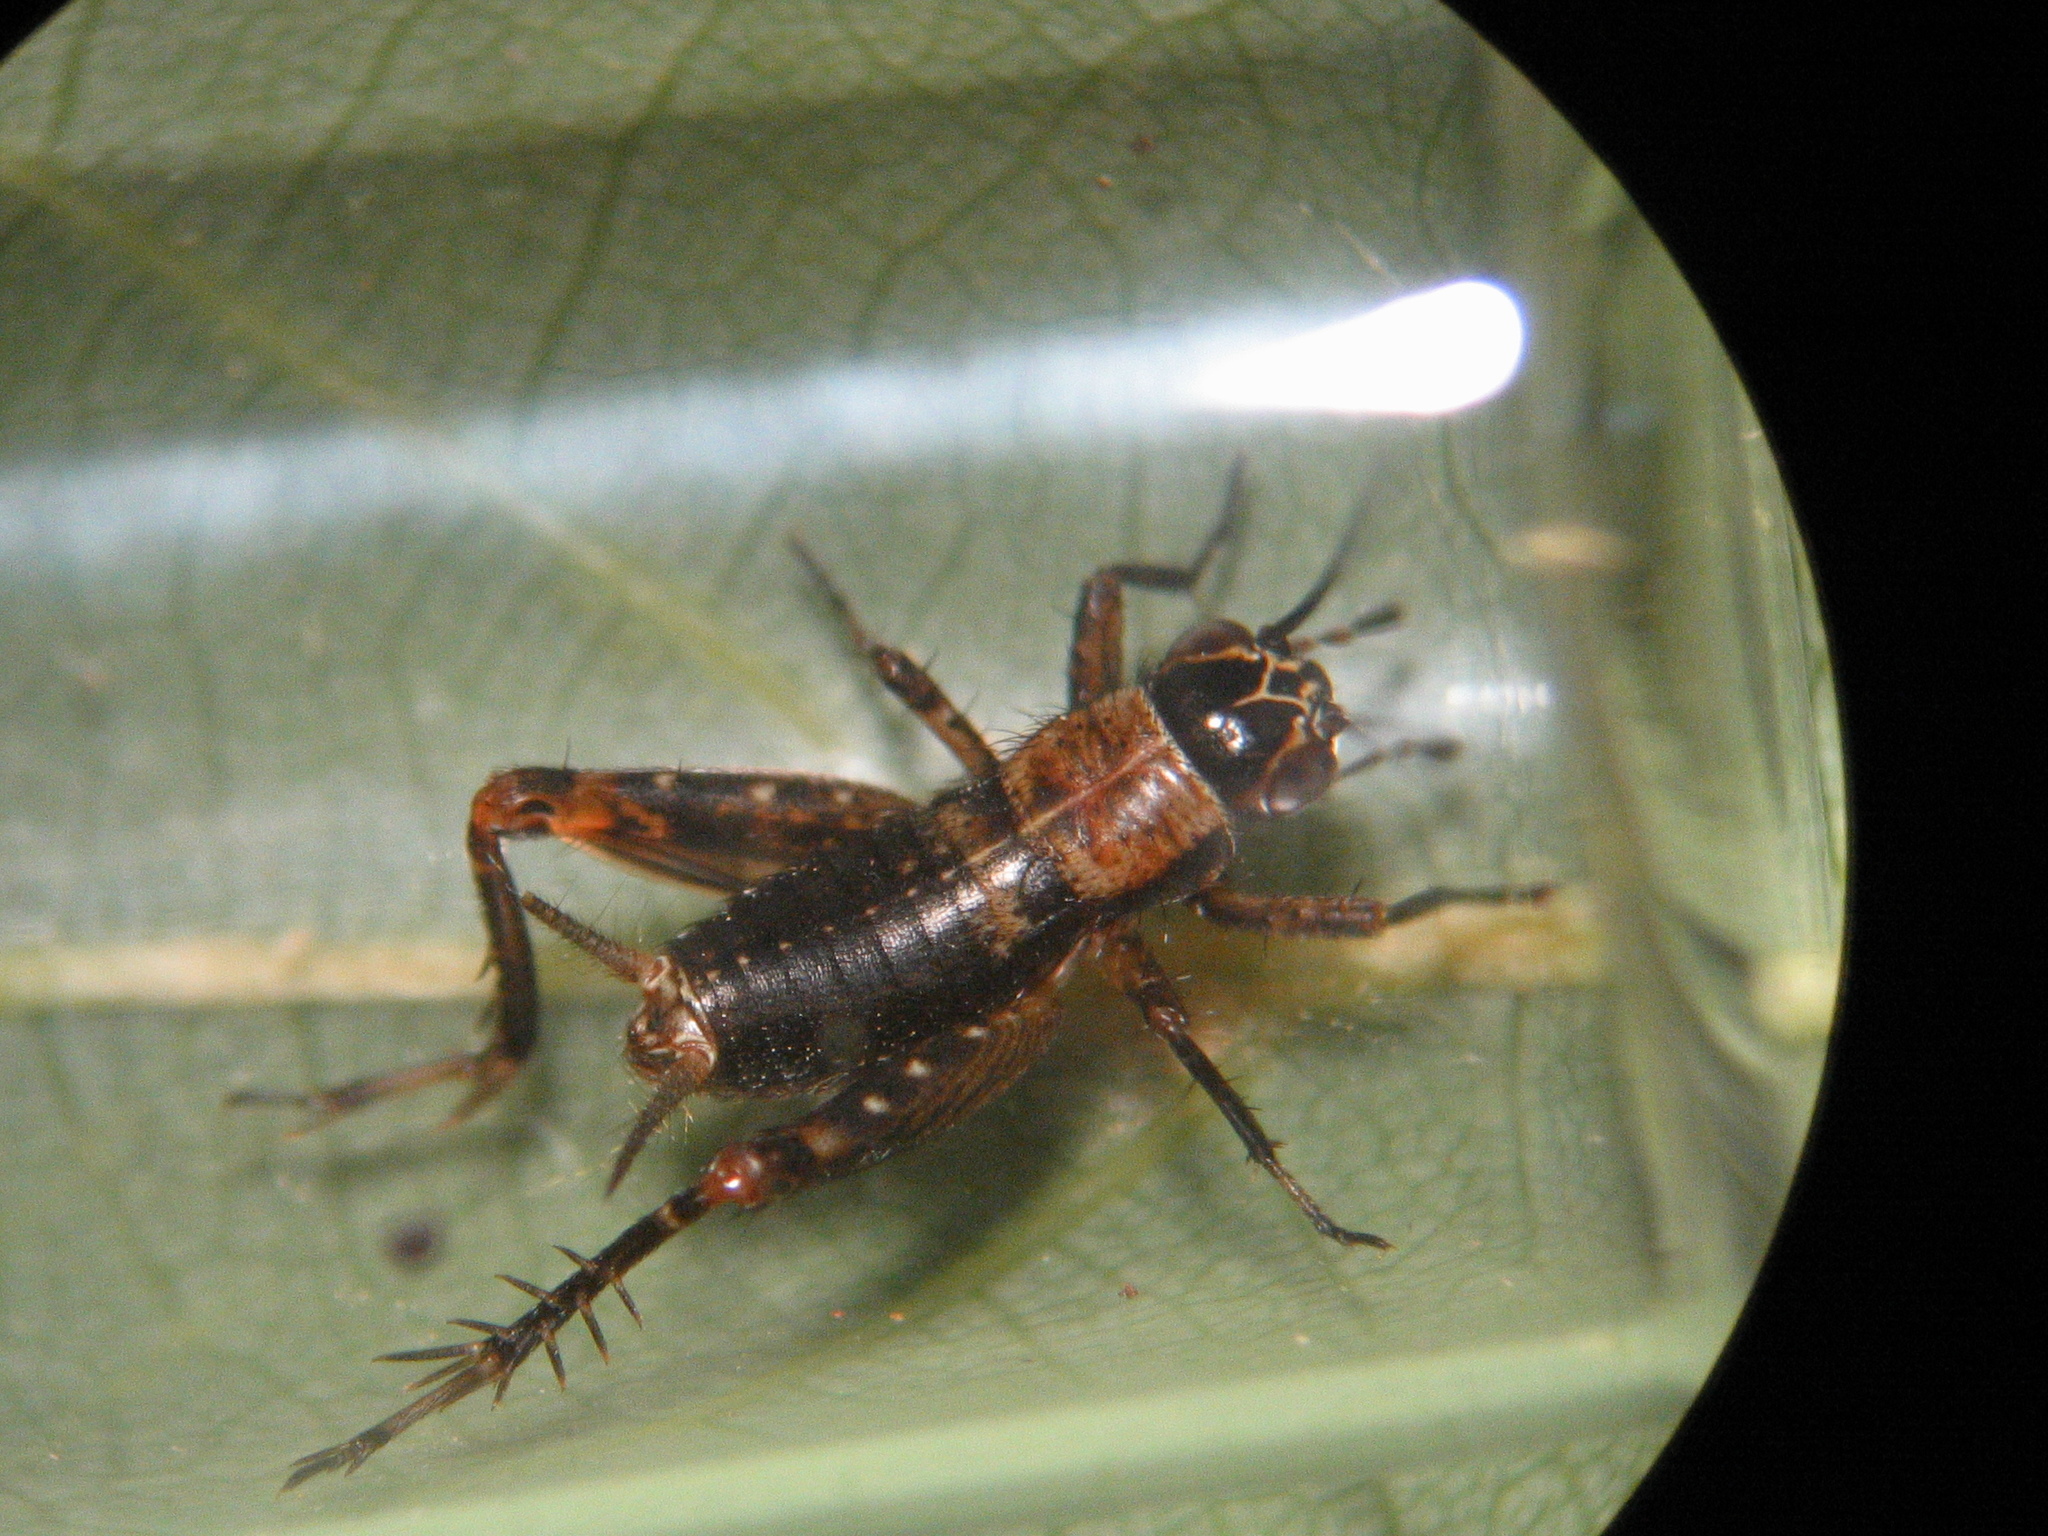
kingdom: Animalia
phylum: Arthropoda
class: Insecta
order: Orthoptera
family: Trigonidiidae
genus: Nemobius
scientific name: Nemobius sylvestris
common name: Wood-cricket
